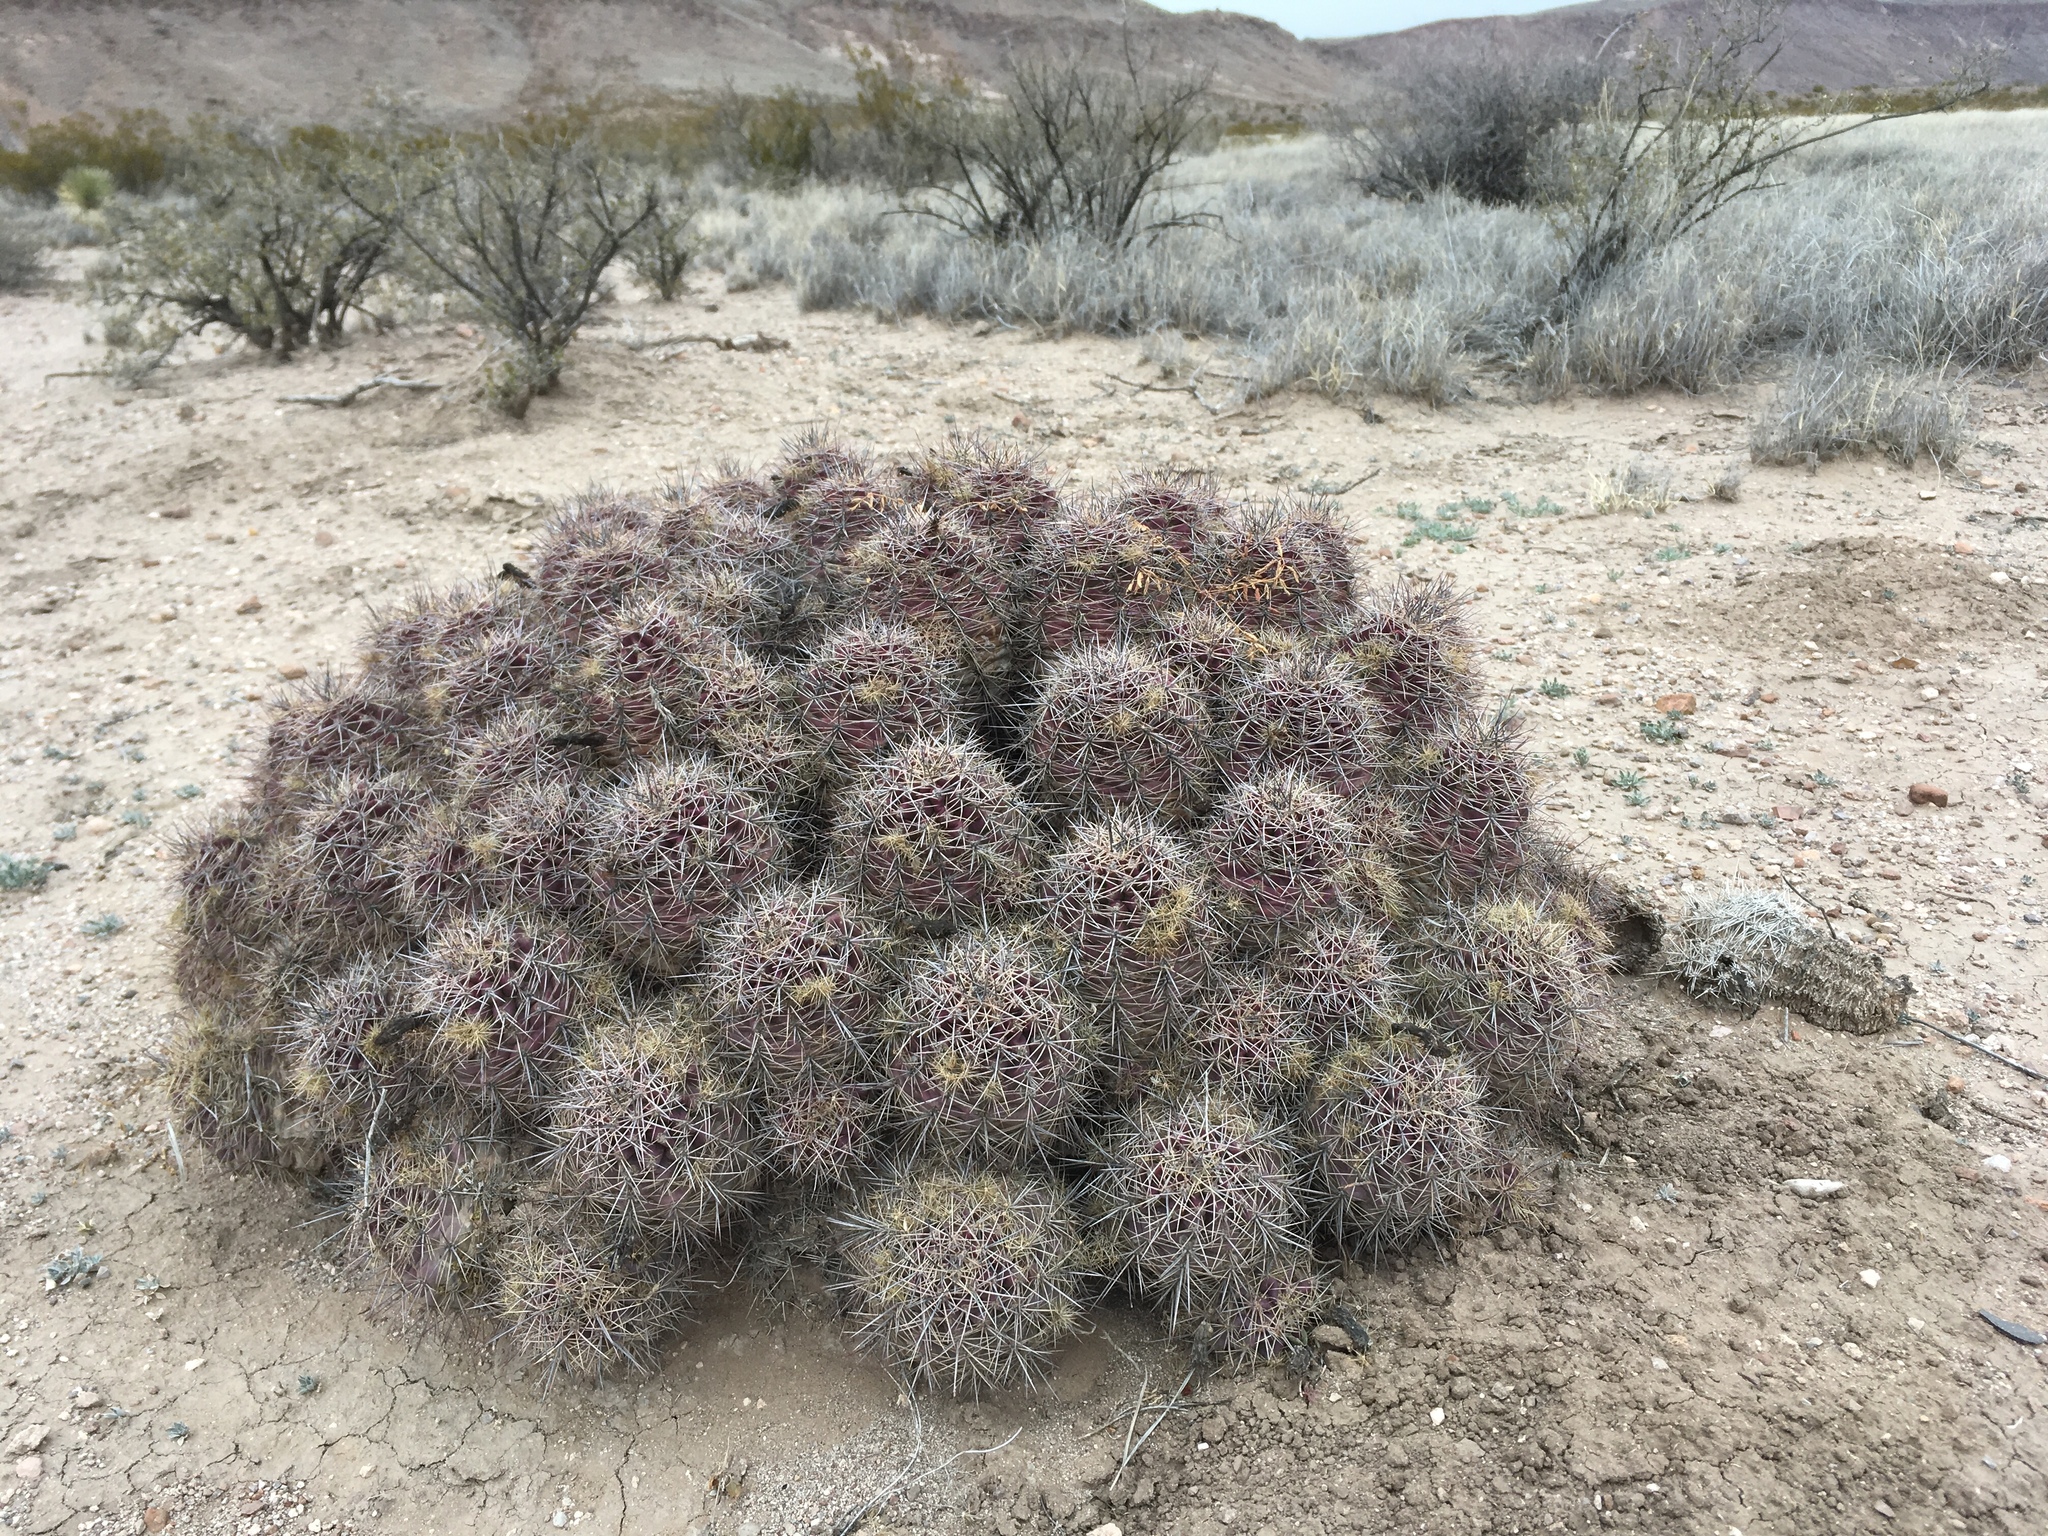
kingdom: Plantae
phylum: Tracheophyta
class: Magnoliopsida
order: Caryophyllales
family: Cactaceae
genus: Echinocereus
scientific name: Echinocereus coccineus
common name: Scarlet hedgehog cactus
